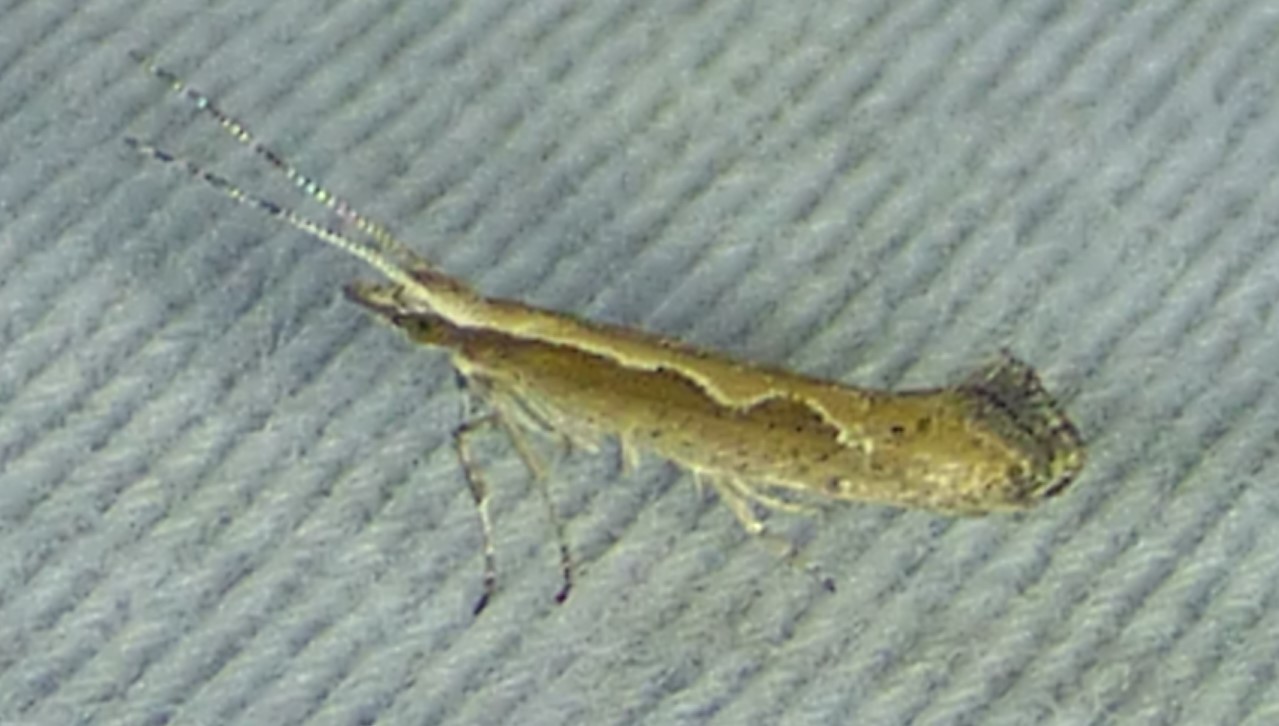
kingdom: Animalia
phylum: Arthropoda
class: Insecta
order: Lepidoptera
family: Plutellidae
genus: Plutella
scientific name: Plutella xylostella
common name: Diamond-back moth
